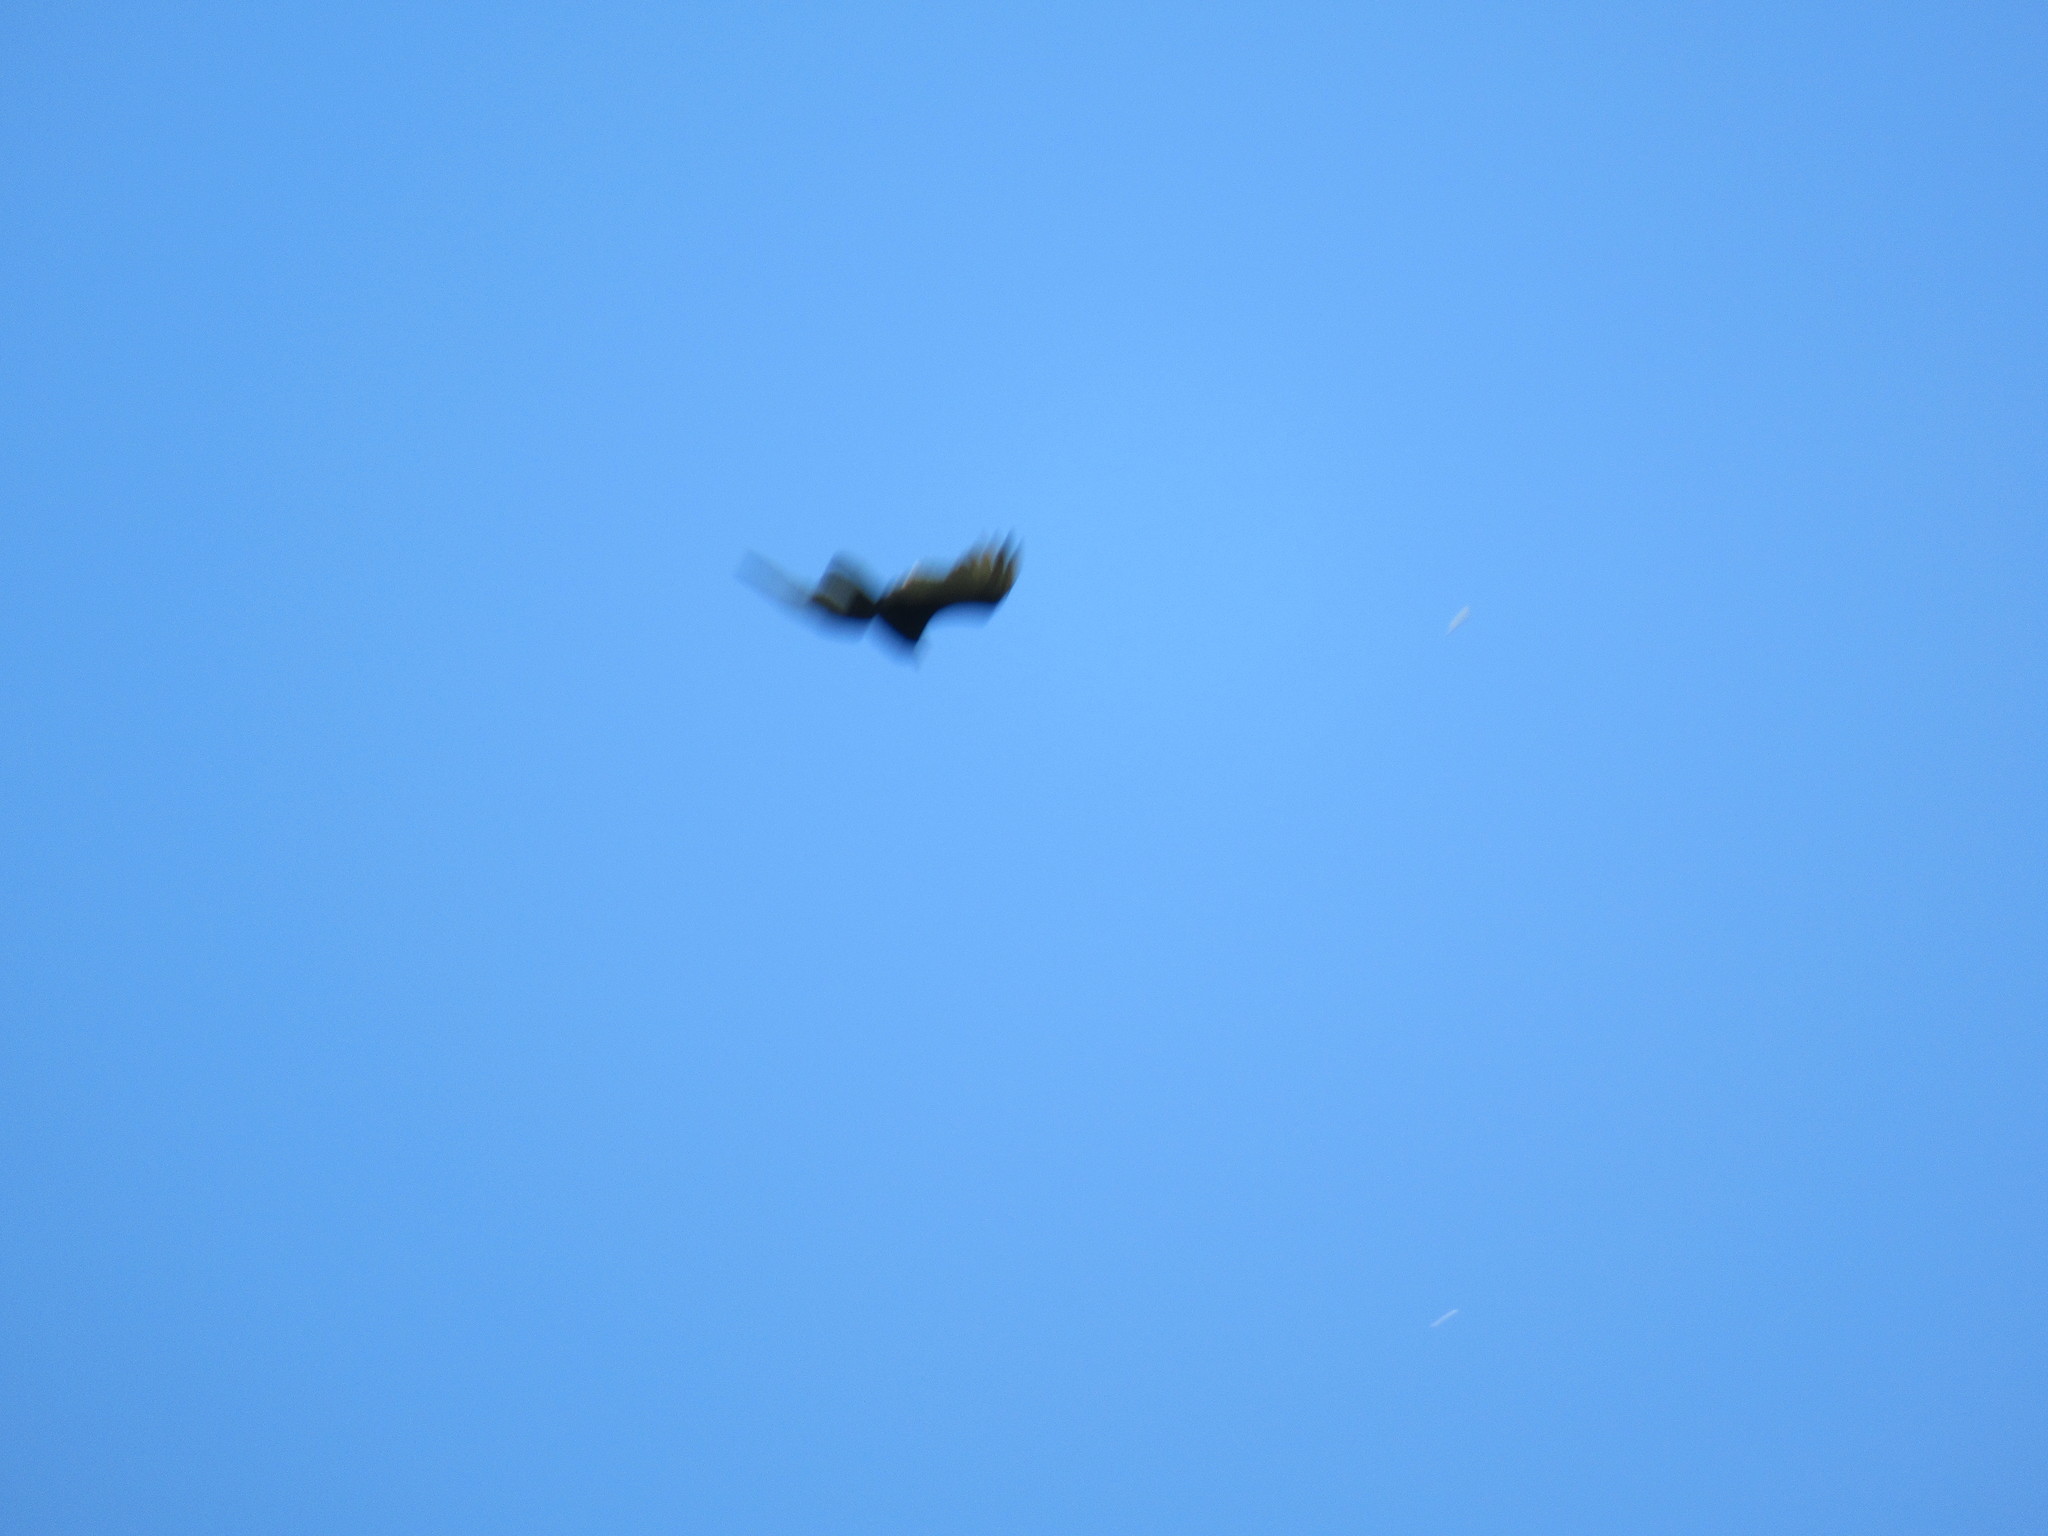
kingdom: Animalia
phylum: Chordata
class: Aves
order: Accipitriformes
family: Cathartidae
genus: Cathartes
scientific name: Cathartes aura
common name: Turkey vulture
